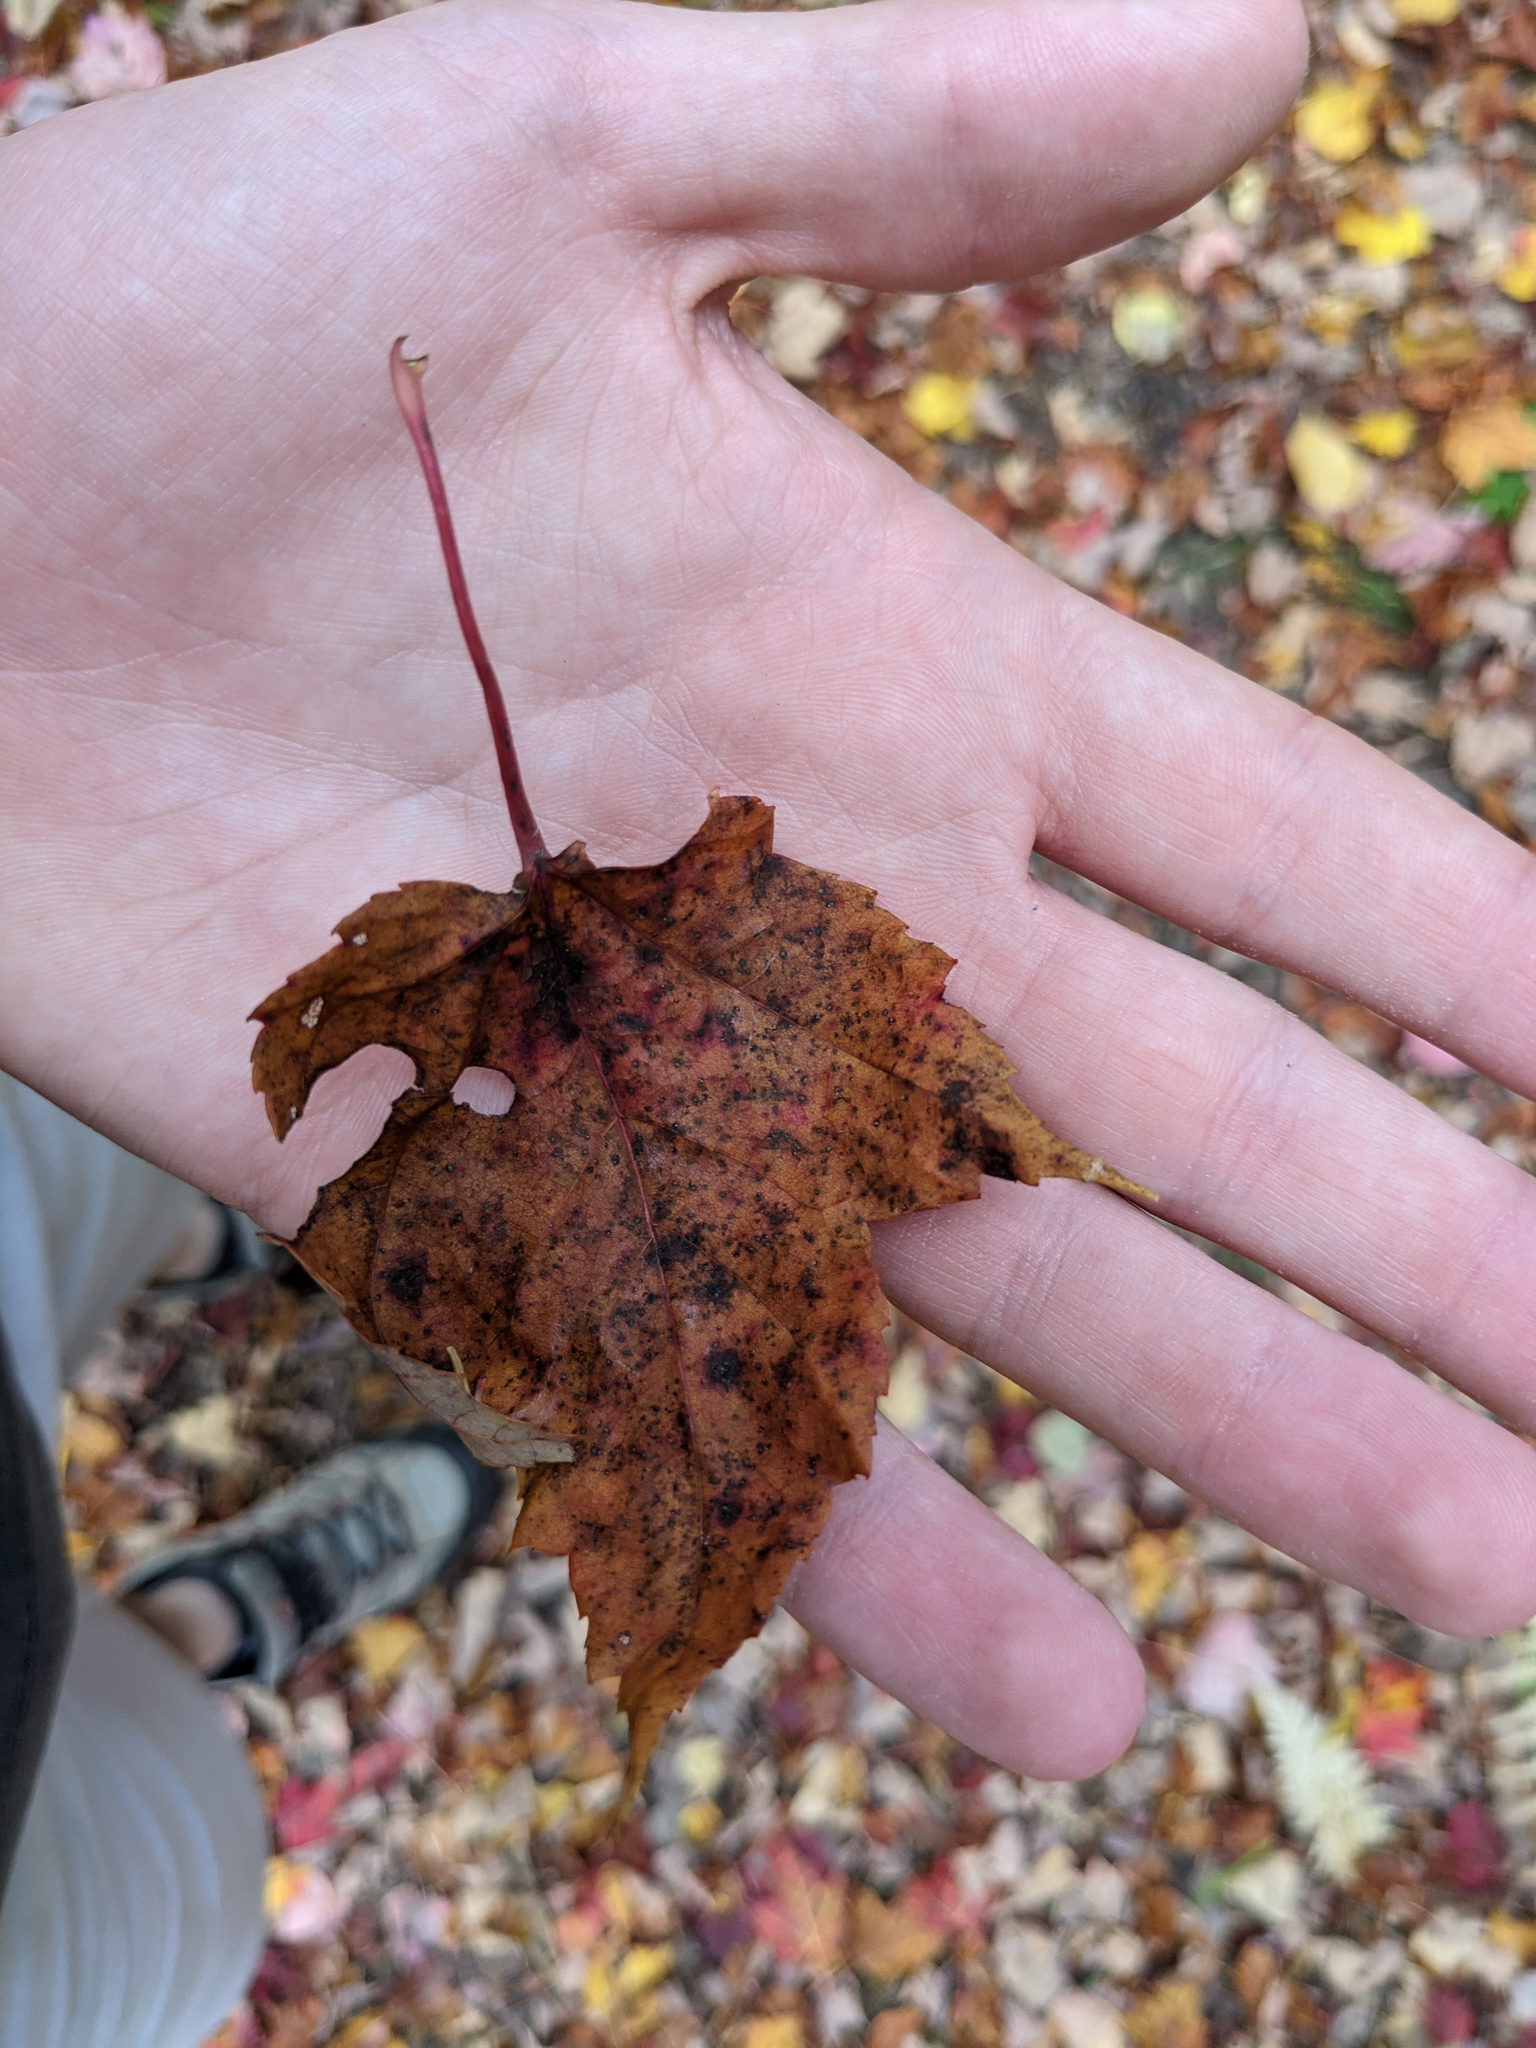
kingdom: Plantae
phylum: Tracheophyta
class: Magnoliopsida
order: Sapindales
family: Sapindaceae
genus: Acer
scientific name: Acer rubrum
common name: Red maple
